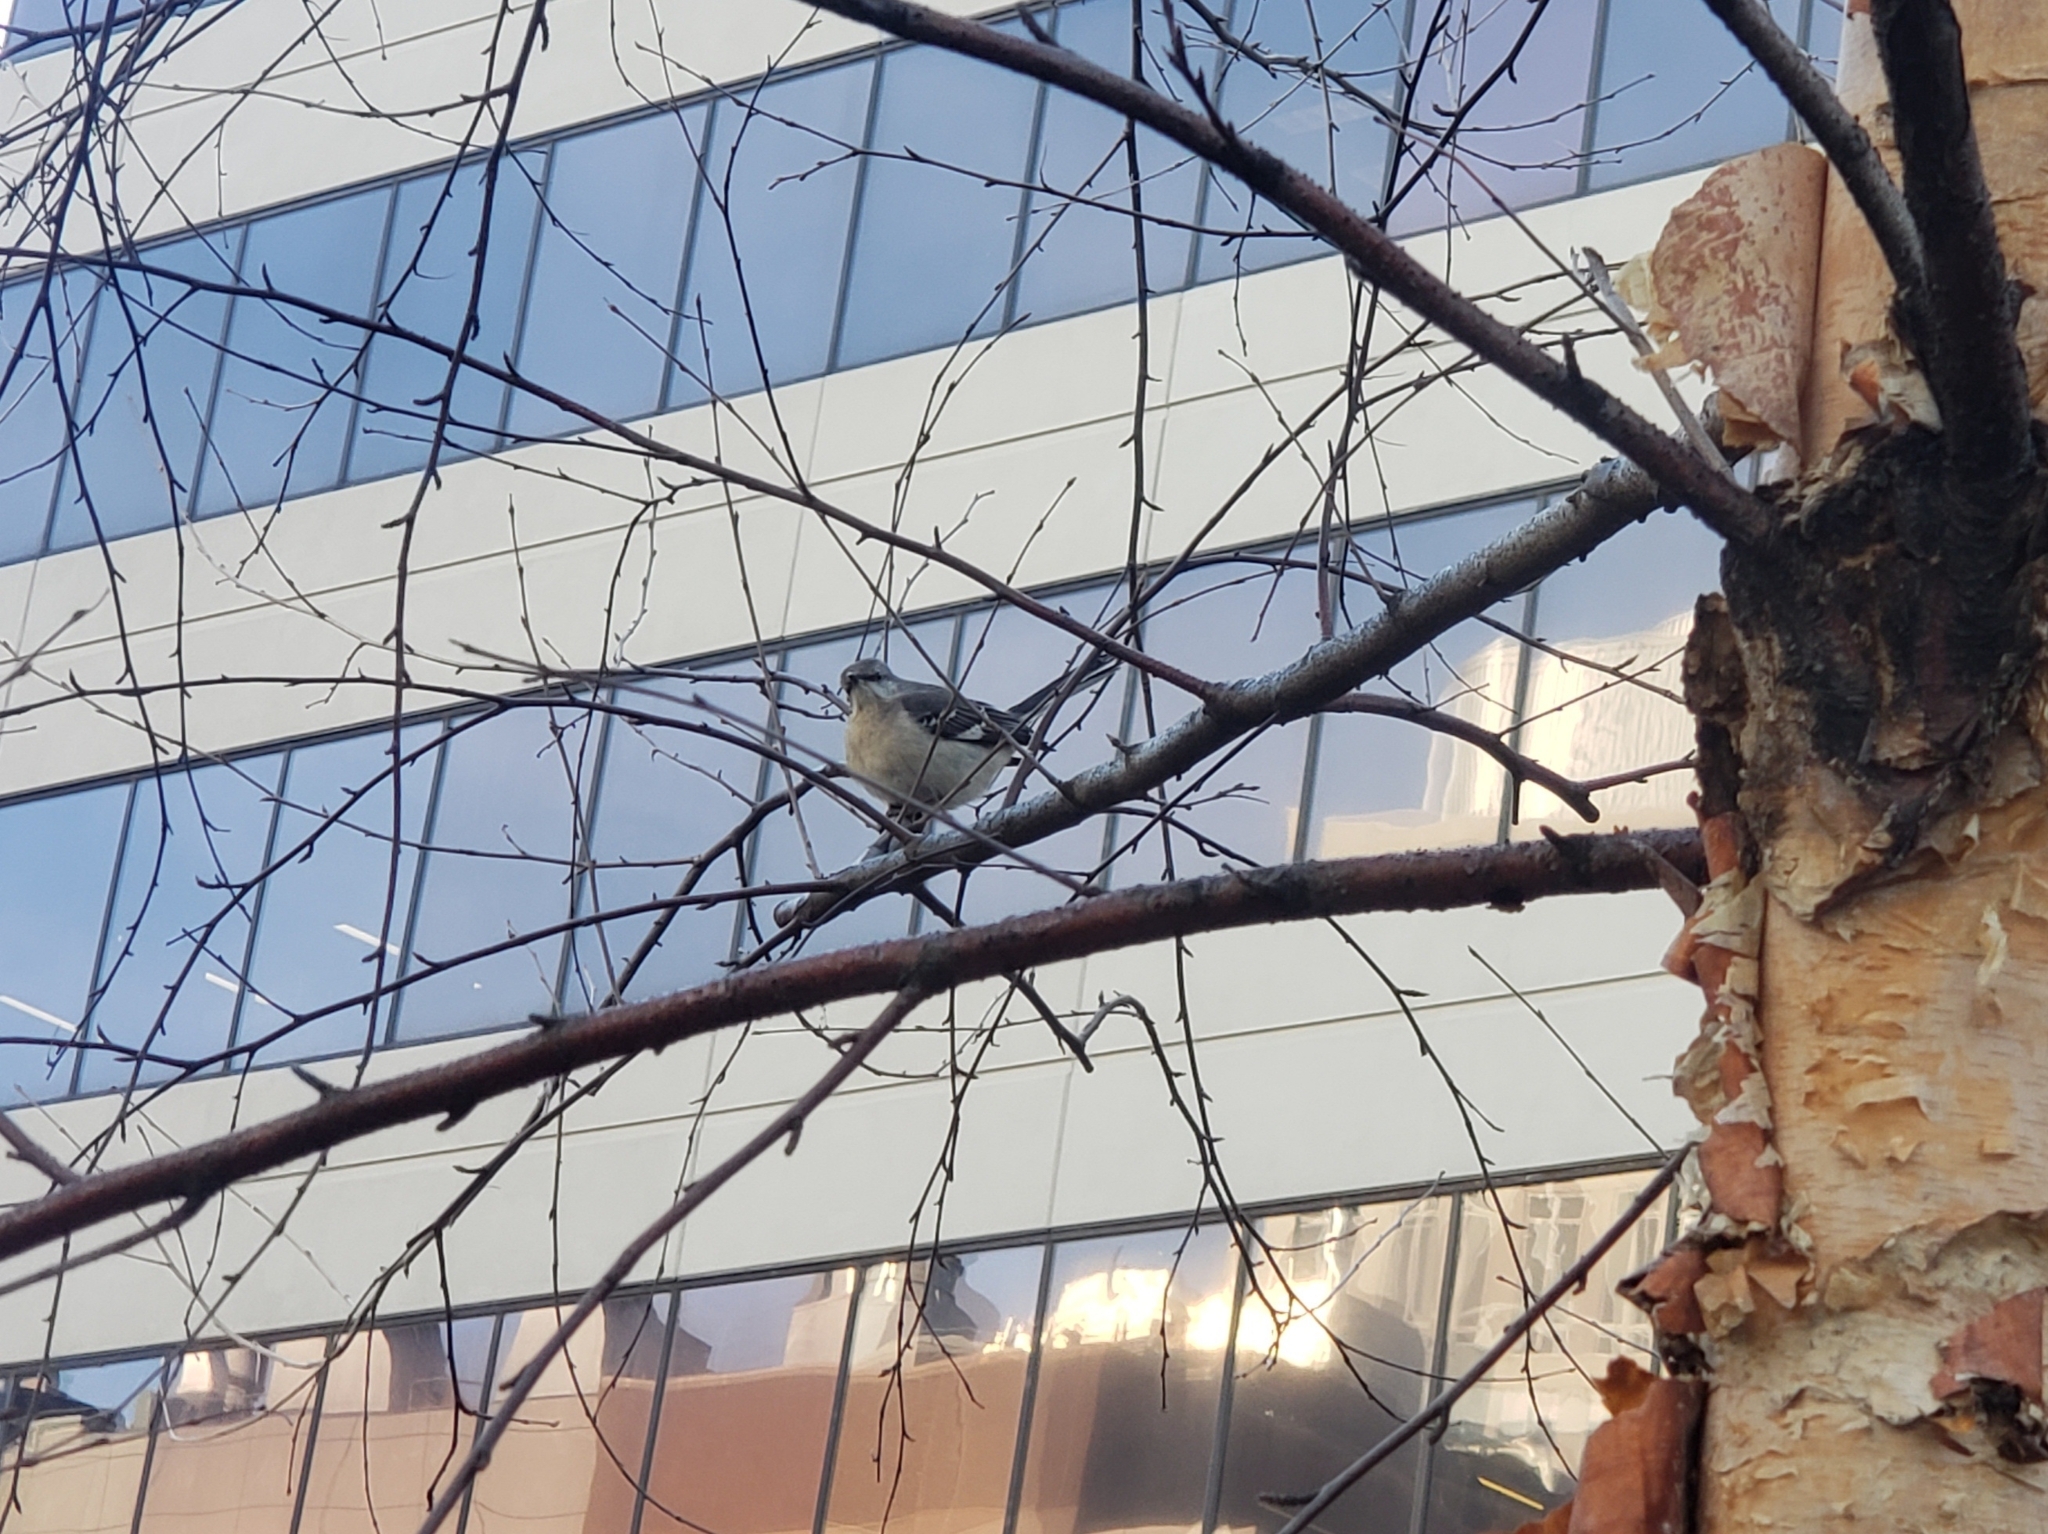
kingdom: Animalia
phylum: Chordata
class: Aves
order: Passeriformes
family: Mimidae
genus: Mimus
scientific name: Mimus polyglottos
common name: Northern mockingbird
